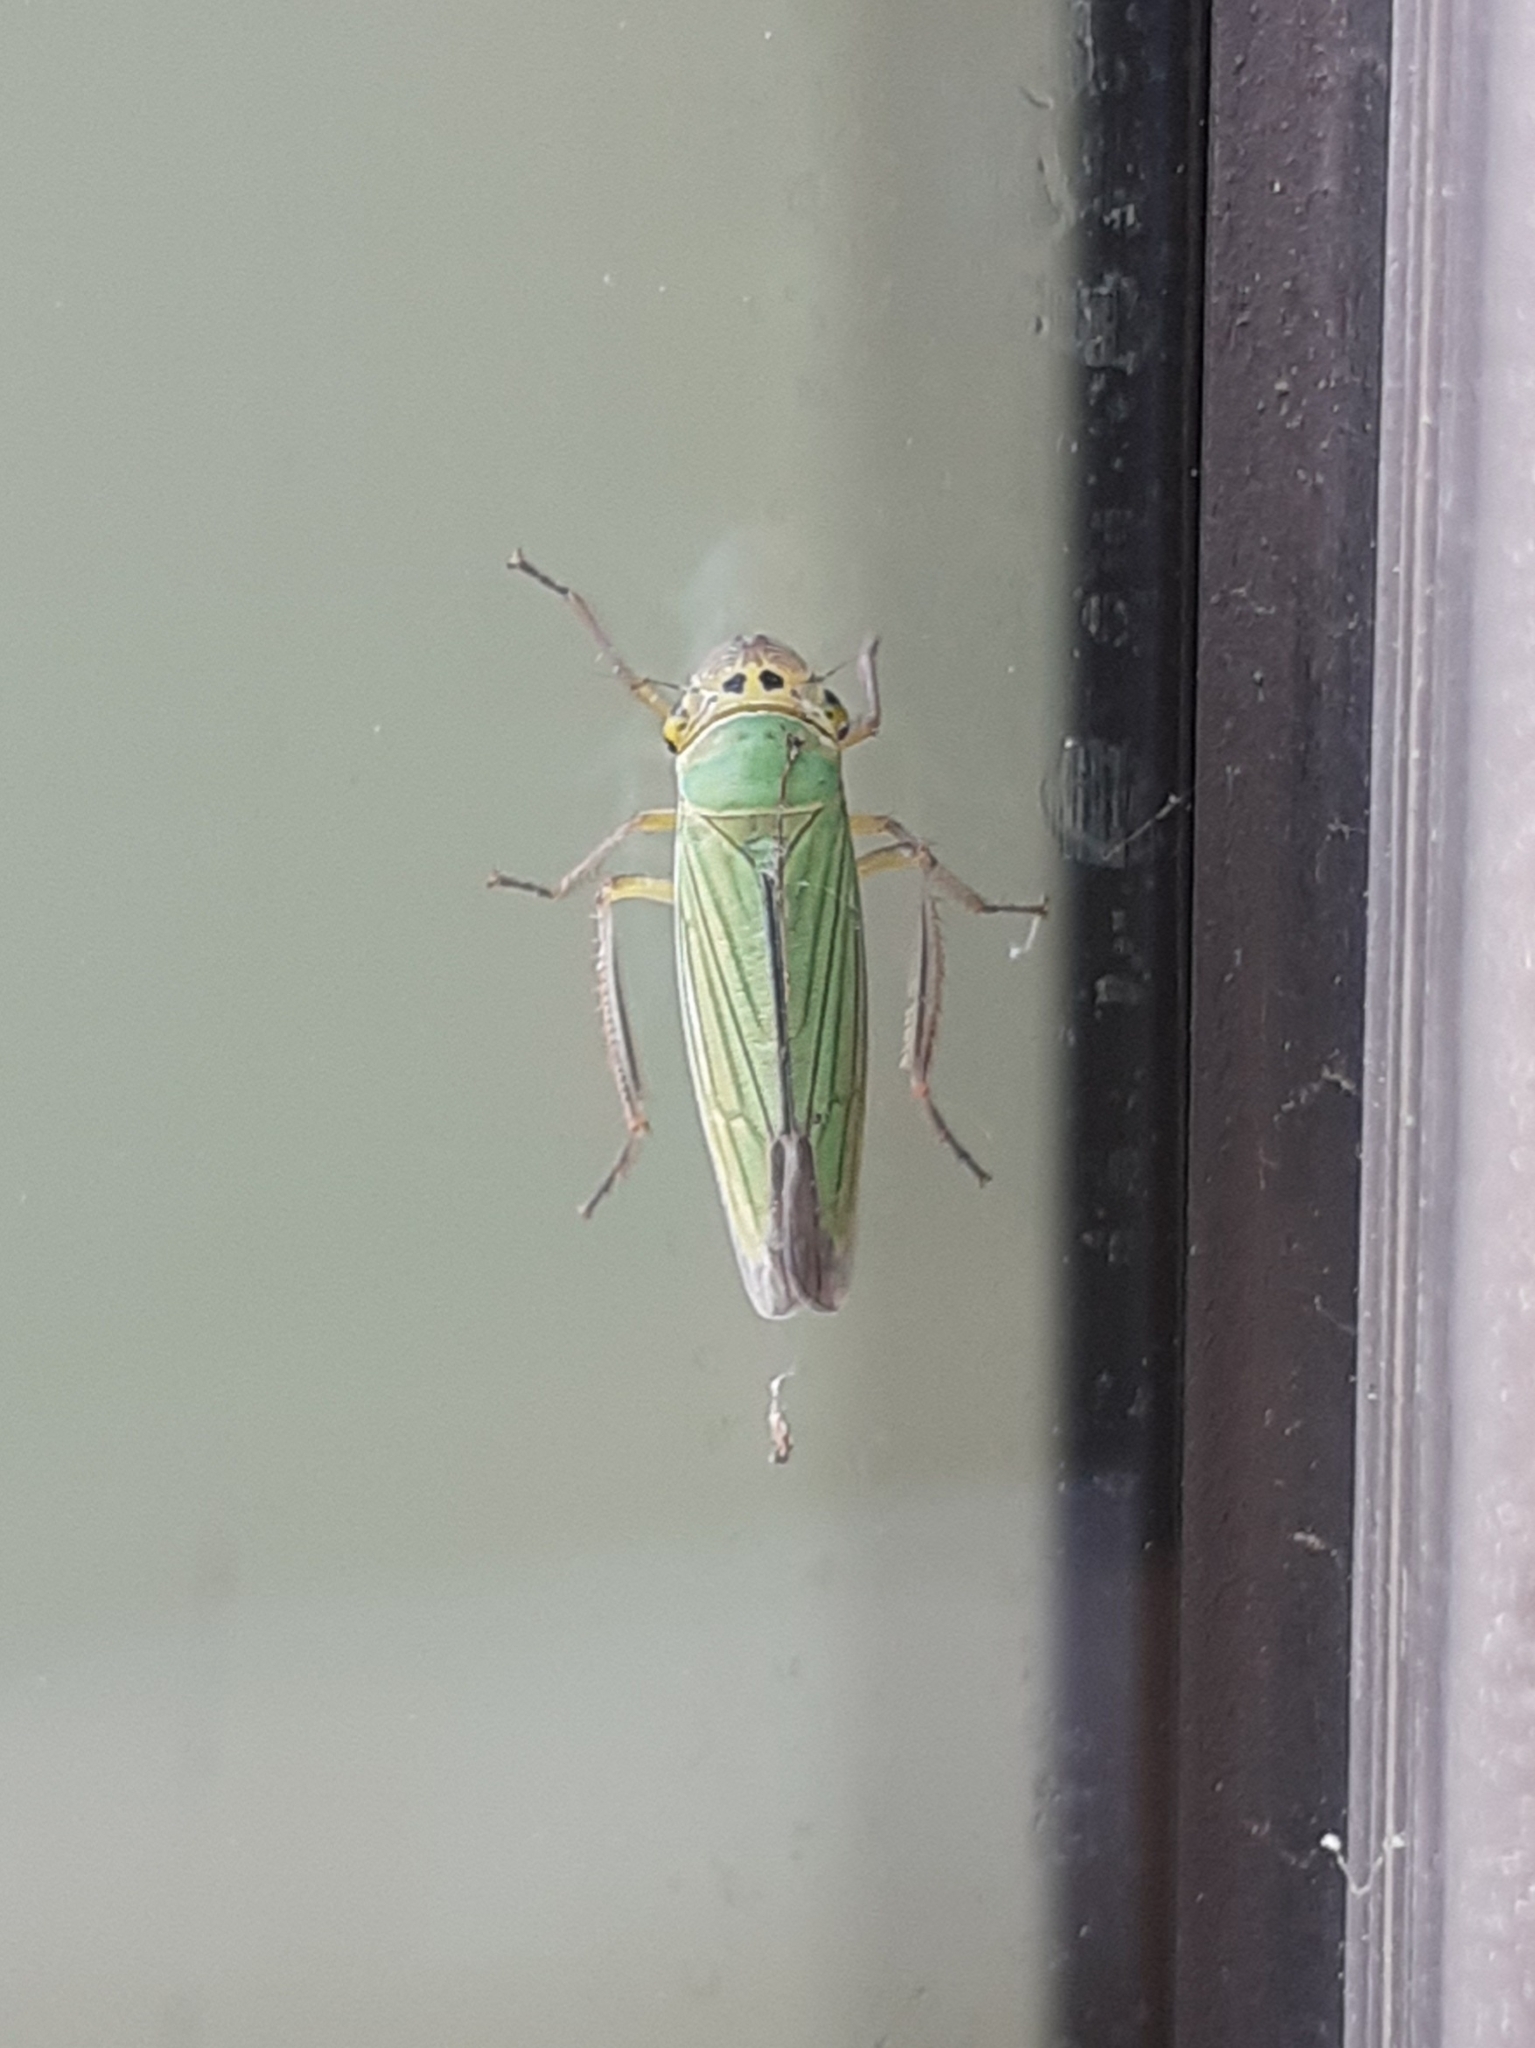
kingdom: Animalia
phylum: Arthropoda
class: Insecta
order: Hemiptera
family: Cicadellidae
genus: Cicadella
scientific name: Cicadella viridis
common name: Leafhopper
